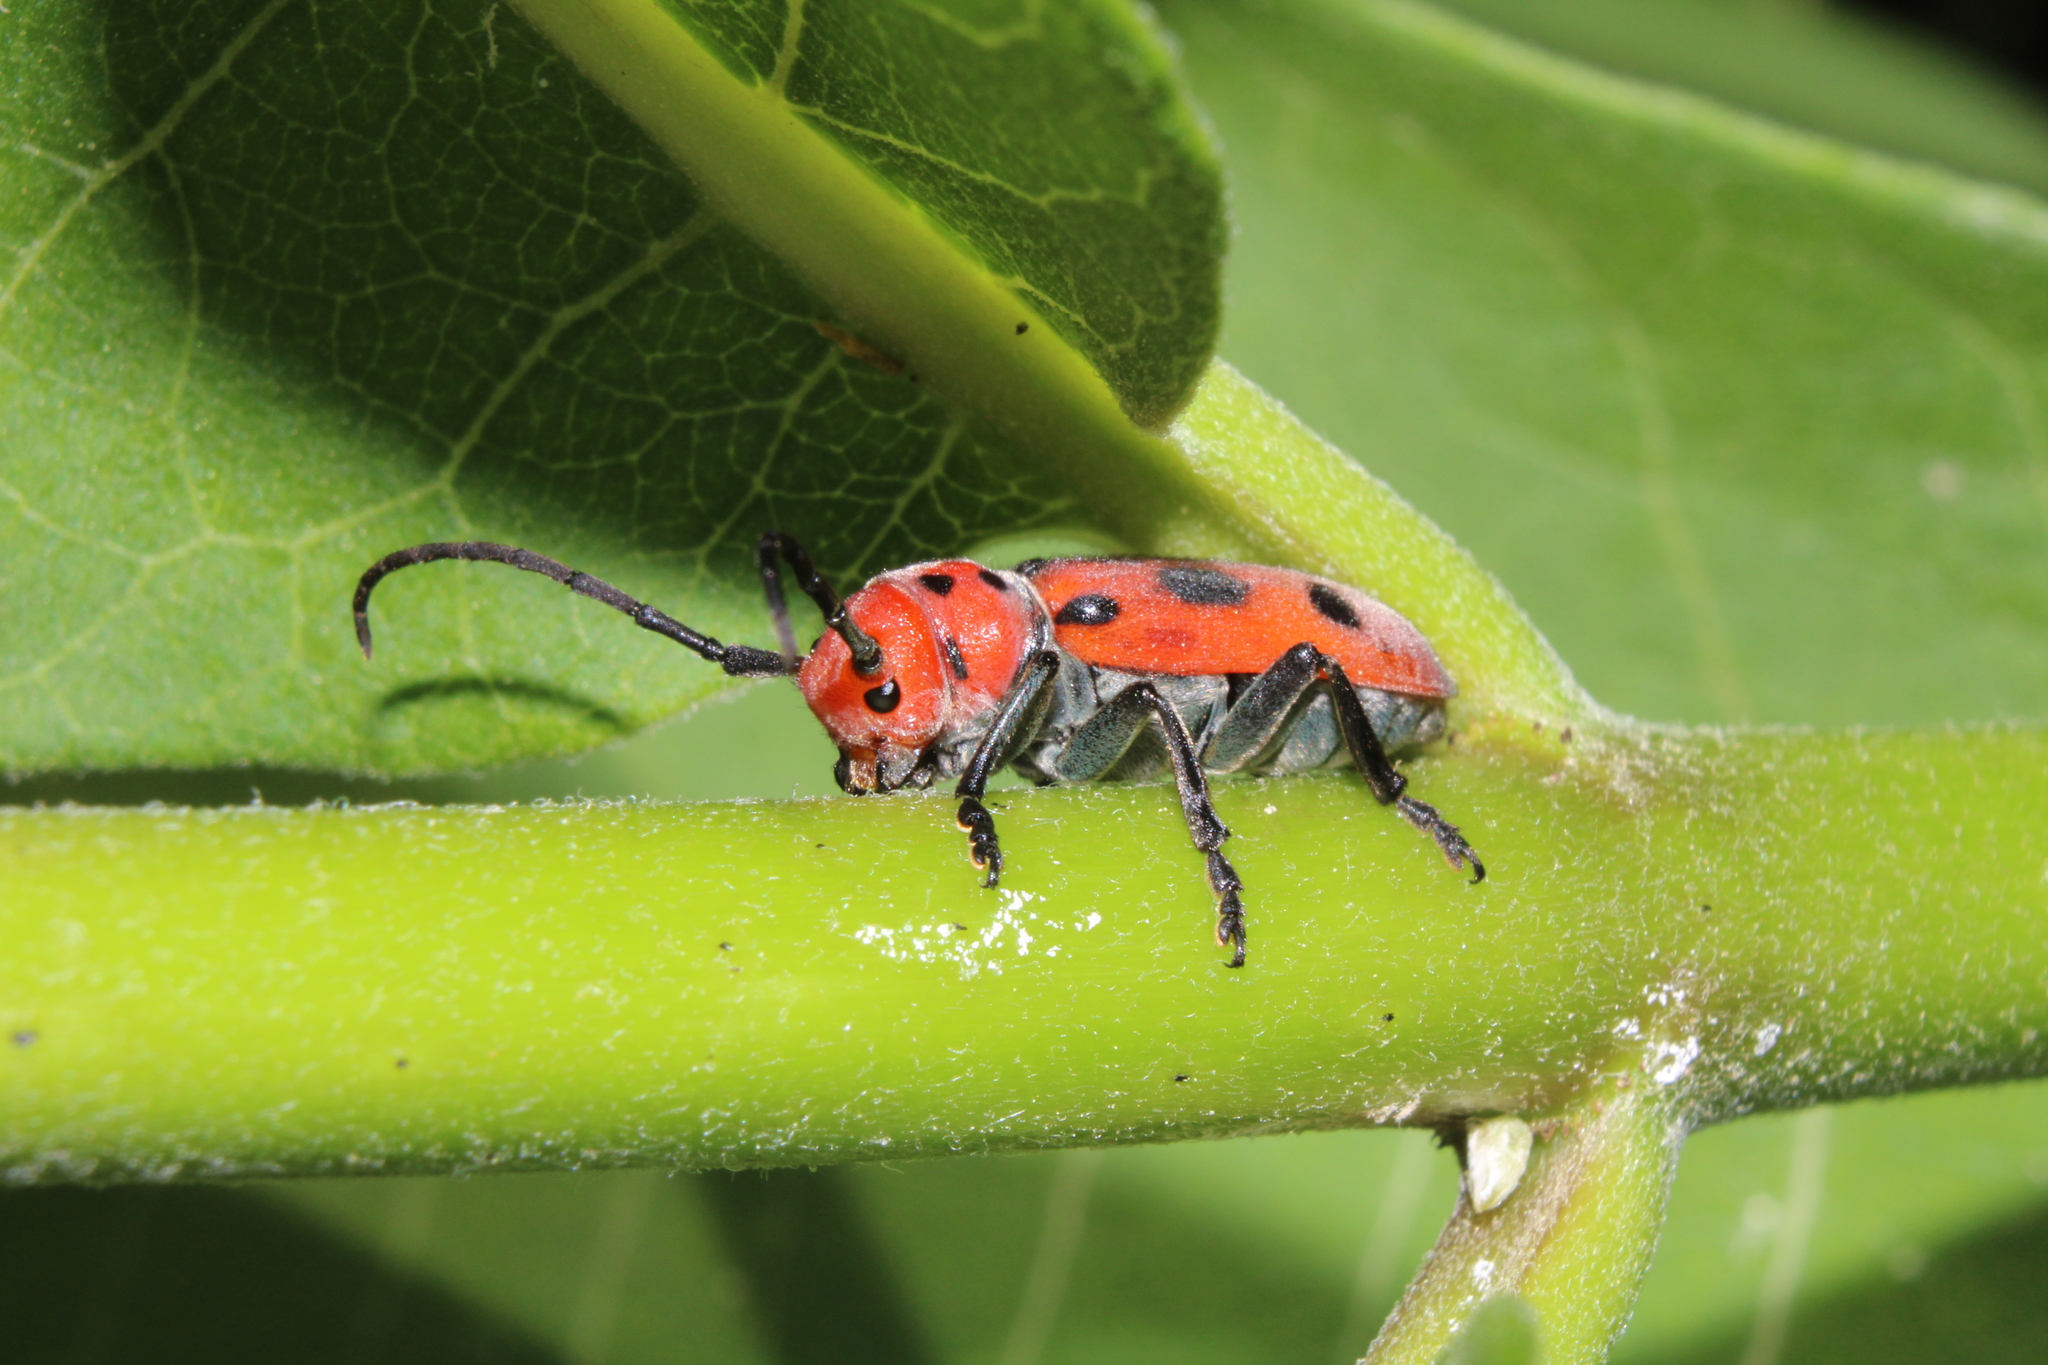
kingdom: Animalia
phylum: Arthropoda
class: Insecta
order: Coleoptera
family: Cerambycidae
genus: Tetraopes
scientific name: Tetraopes tetrophthalmus
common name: Red milkweed beetle
